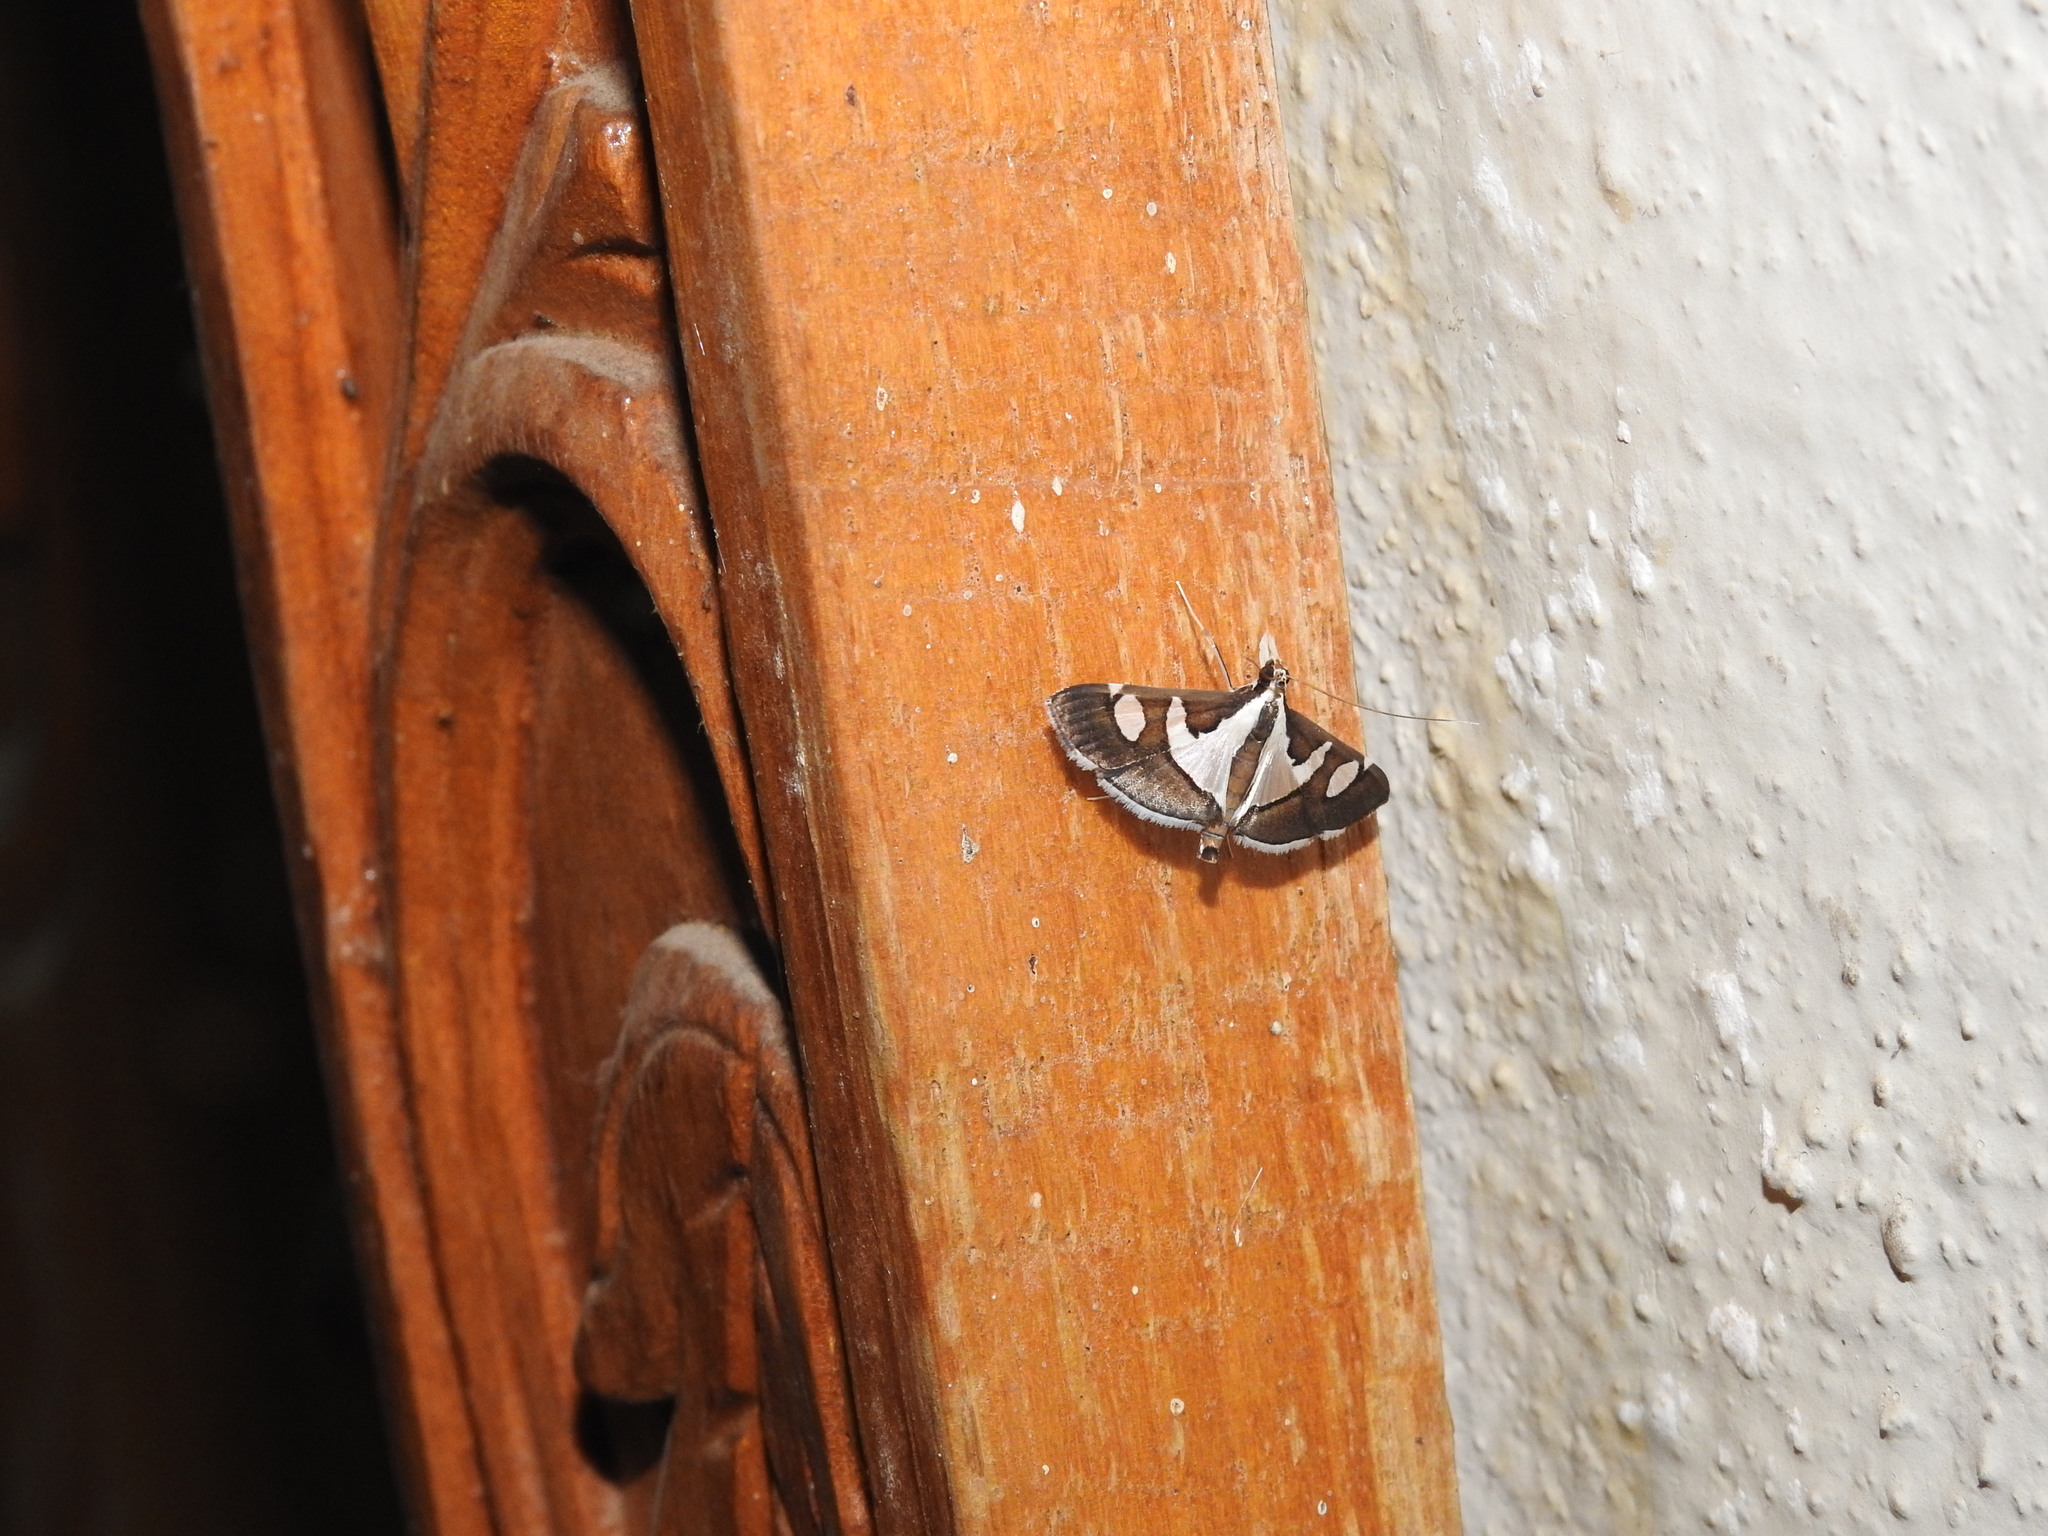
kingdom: Animalia
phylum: Arthropoda
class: Insecta
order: Lepidoptera
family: Crambidae
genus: Glyphodes
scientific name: Glyphodes bicolor
